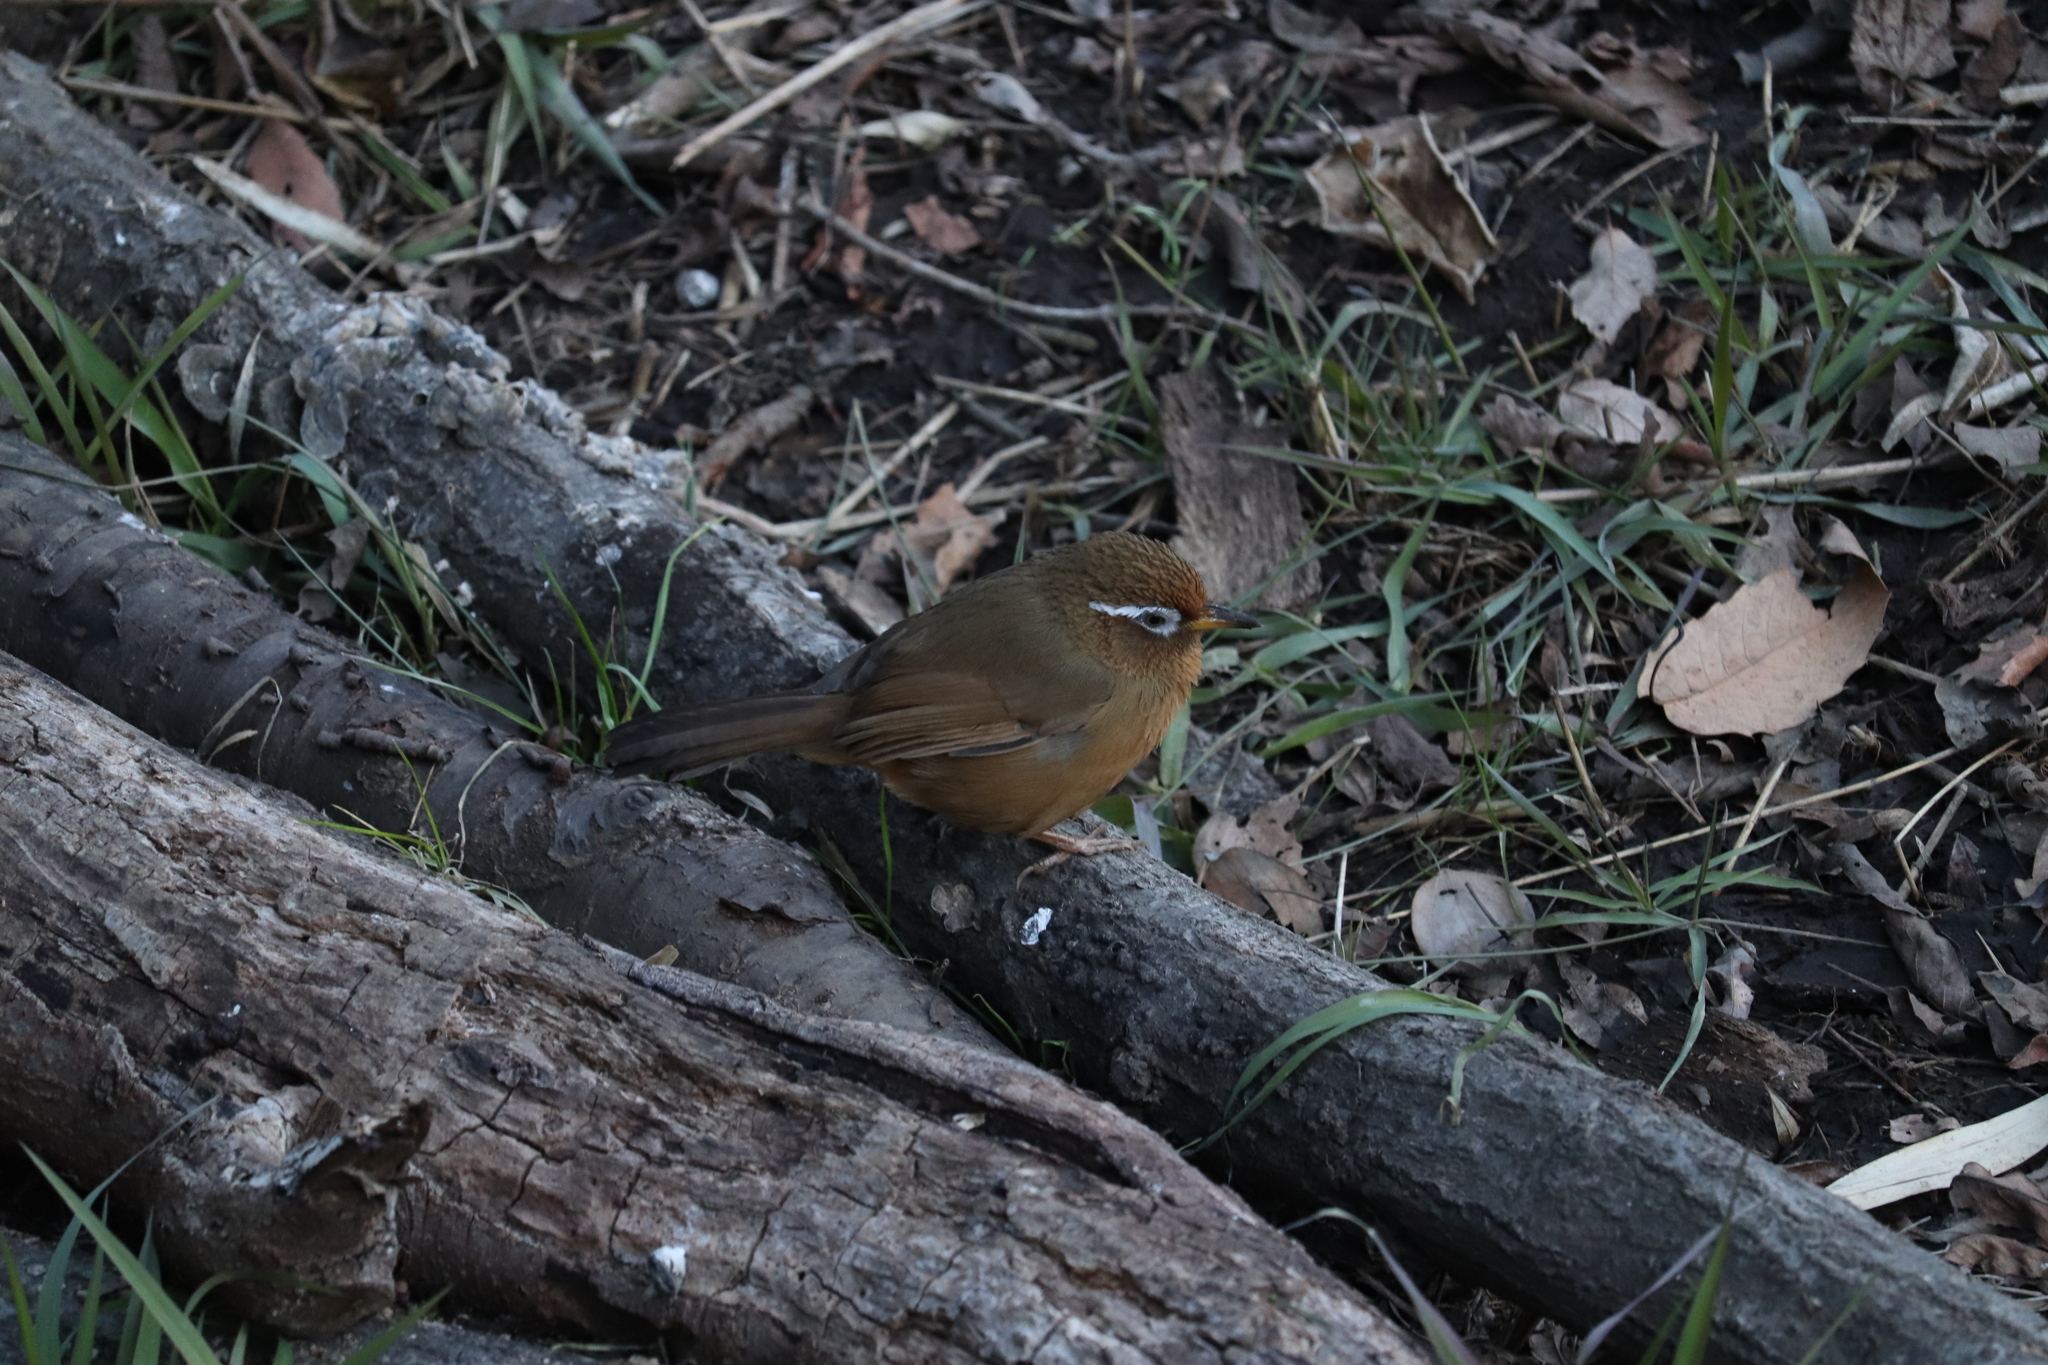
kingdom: Animalia
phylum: Chordata
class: Aves
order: Passeriformes
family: Leiothrichidae
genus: Garrulax
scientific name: Garrulax canorus
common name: Chinese hwamei
